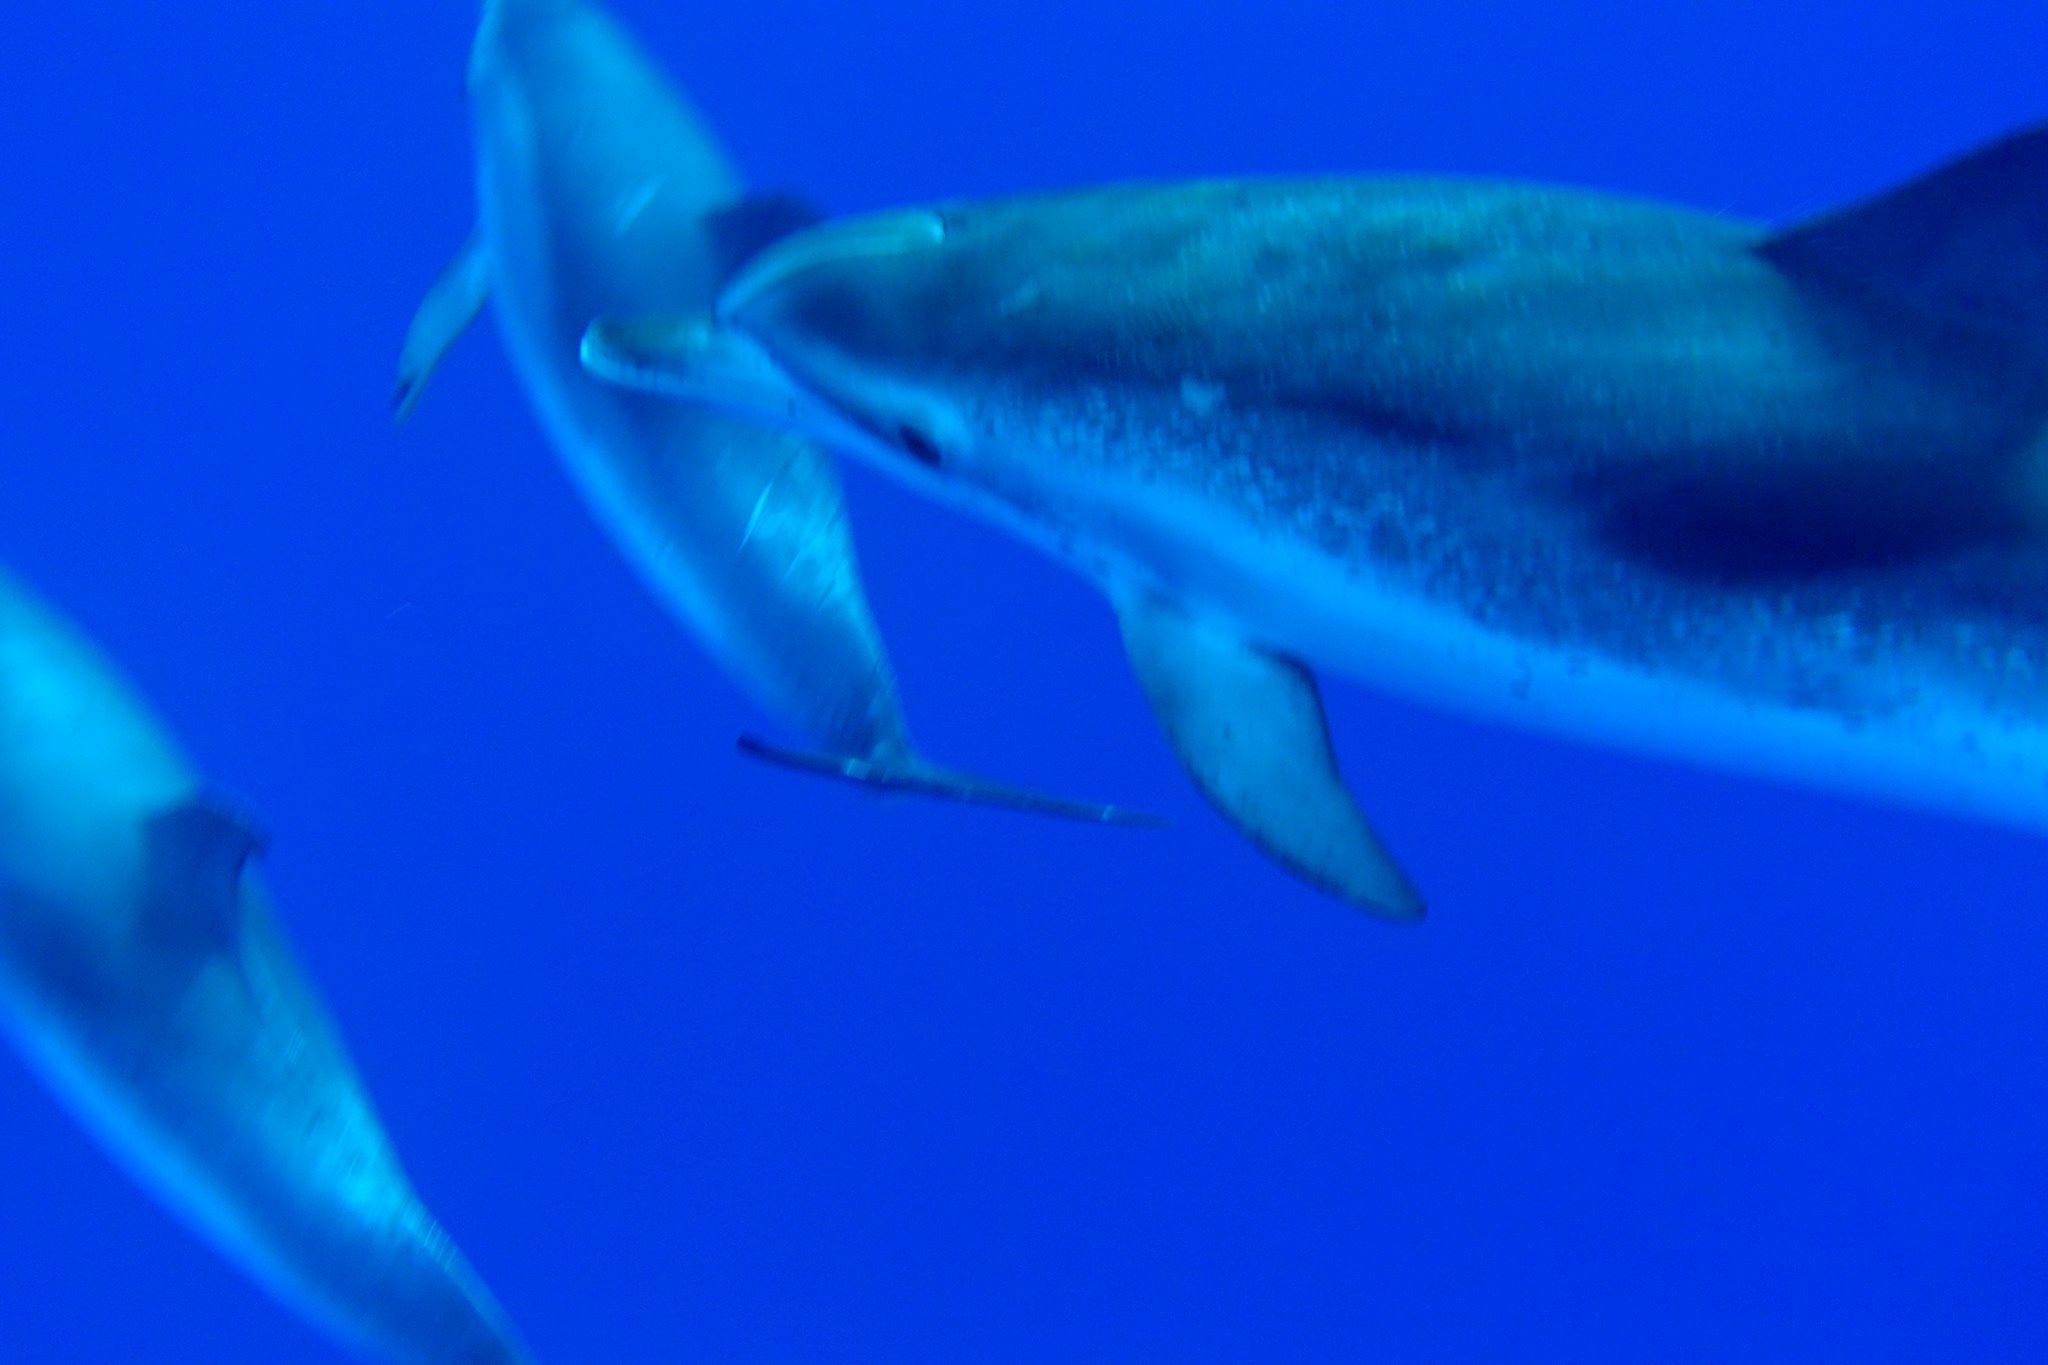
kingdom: Animalia
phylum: Chordata
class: Mammalia
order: Cetacea
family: Delphinidae
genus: Stenella
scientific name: Stenella frontalis
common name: Atlantic spotted dolphin
